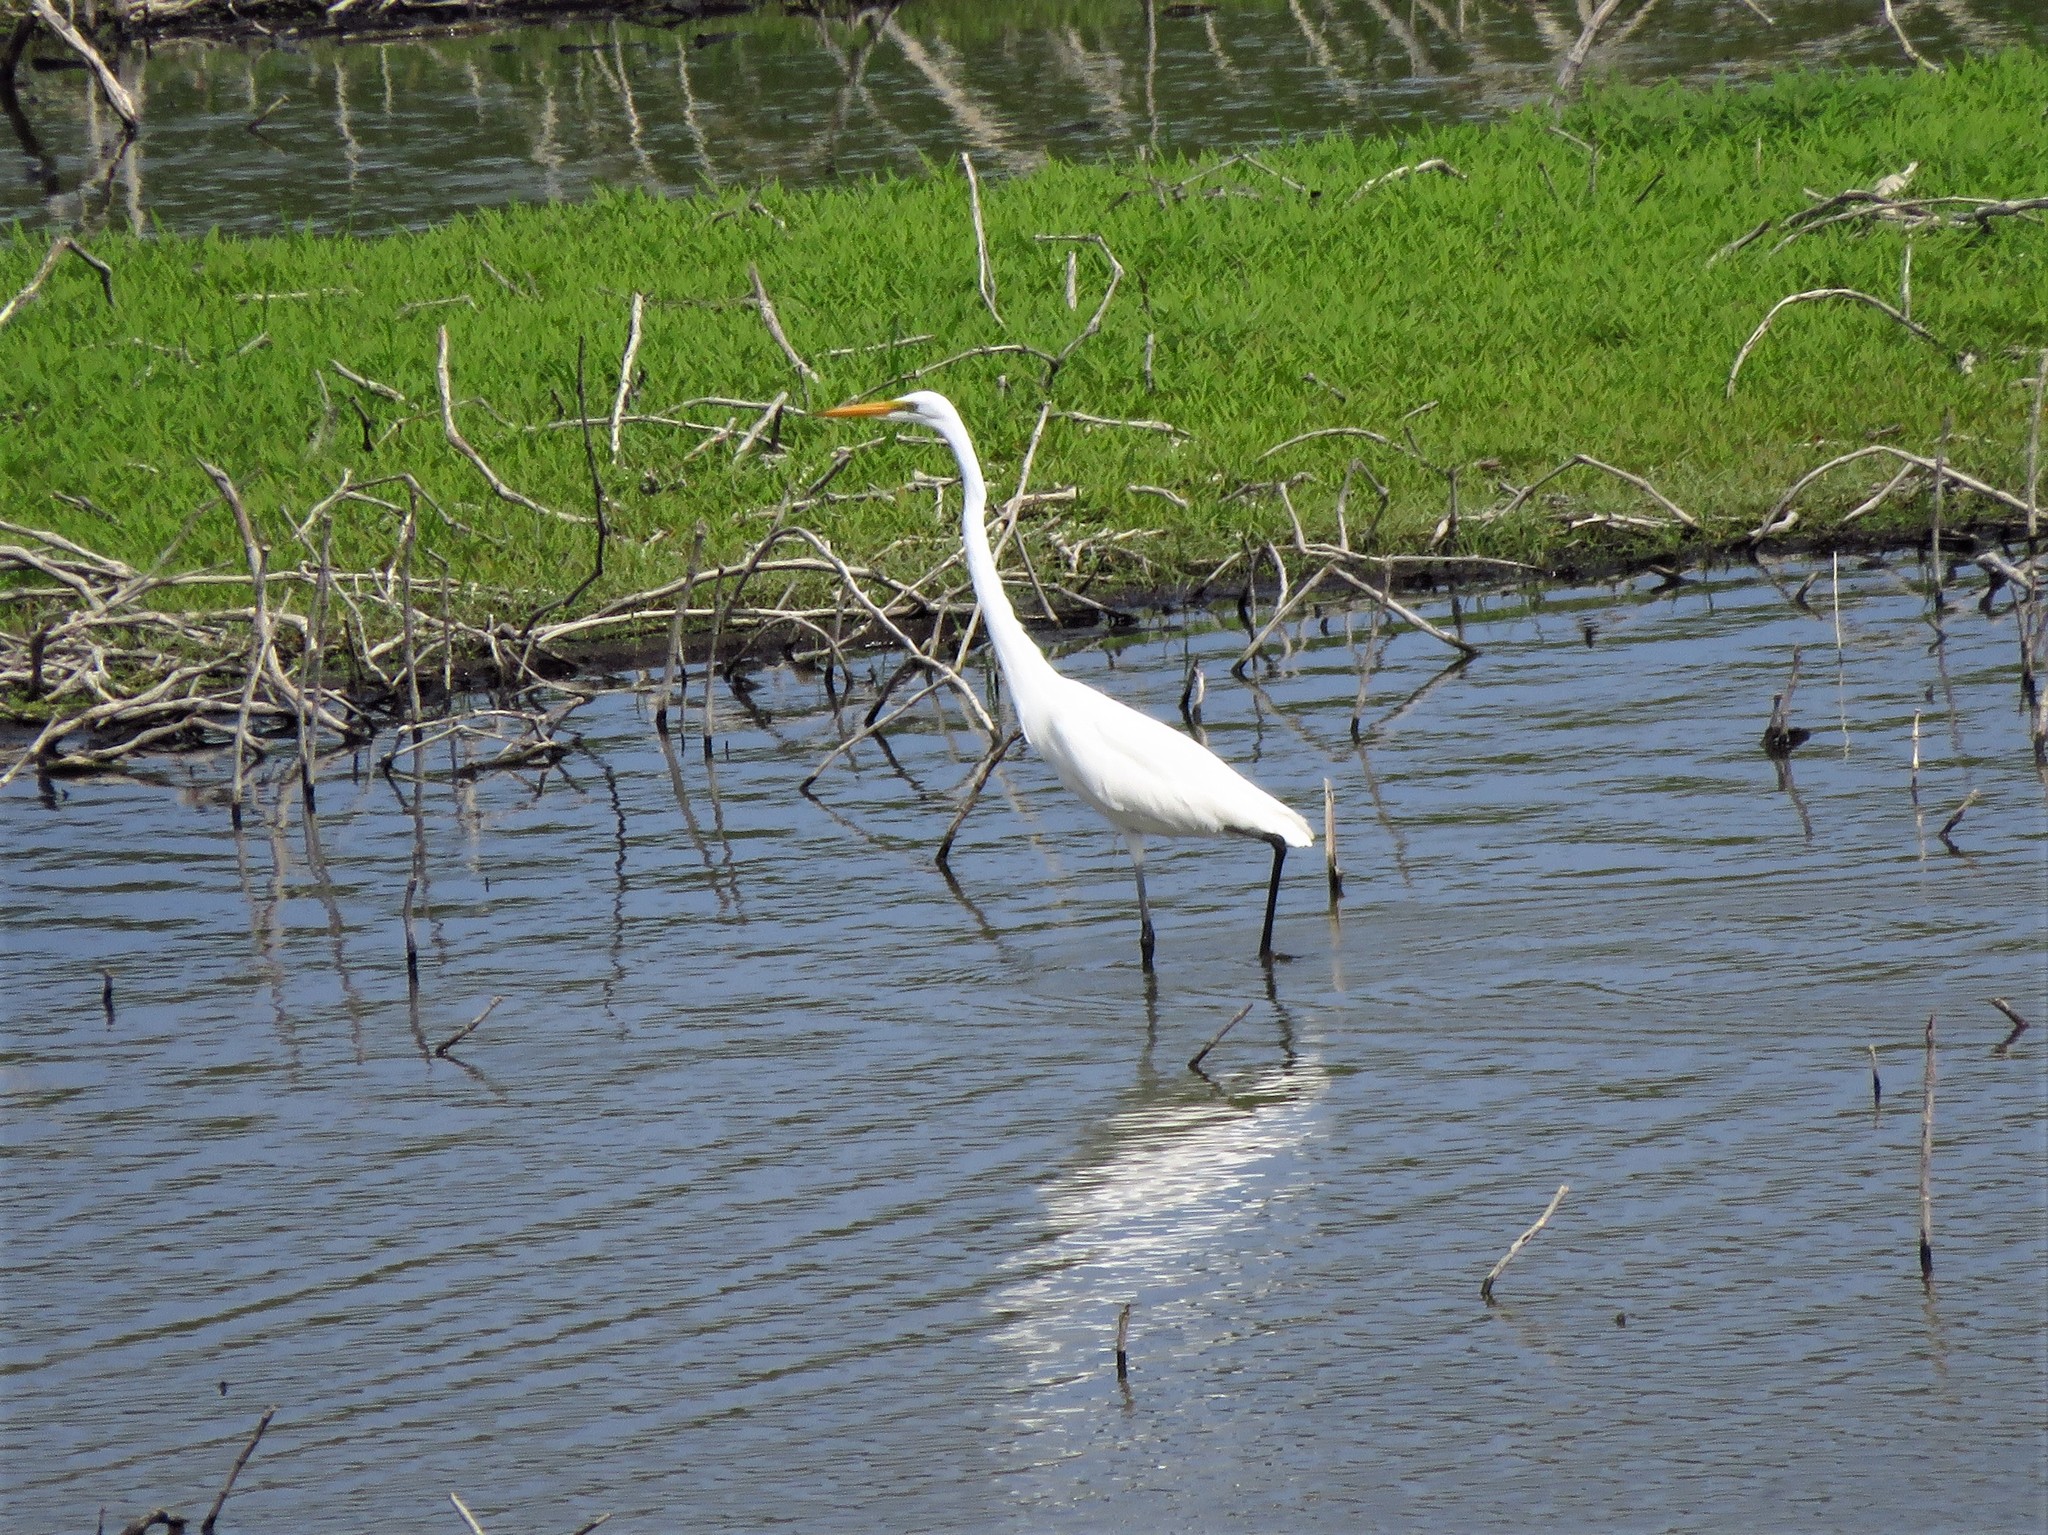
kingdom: Animalia
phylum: Chordata
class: Aves
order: Pelecaniformes
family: Ardeidae
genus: Ardea
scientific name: Ardea alba
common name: Great egret
